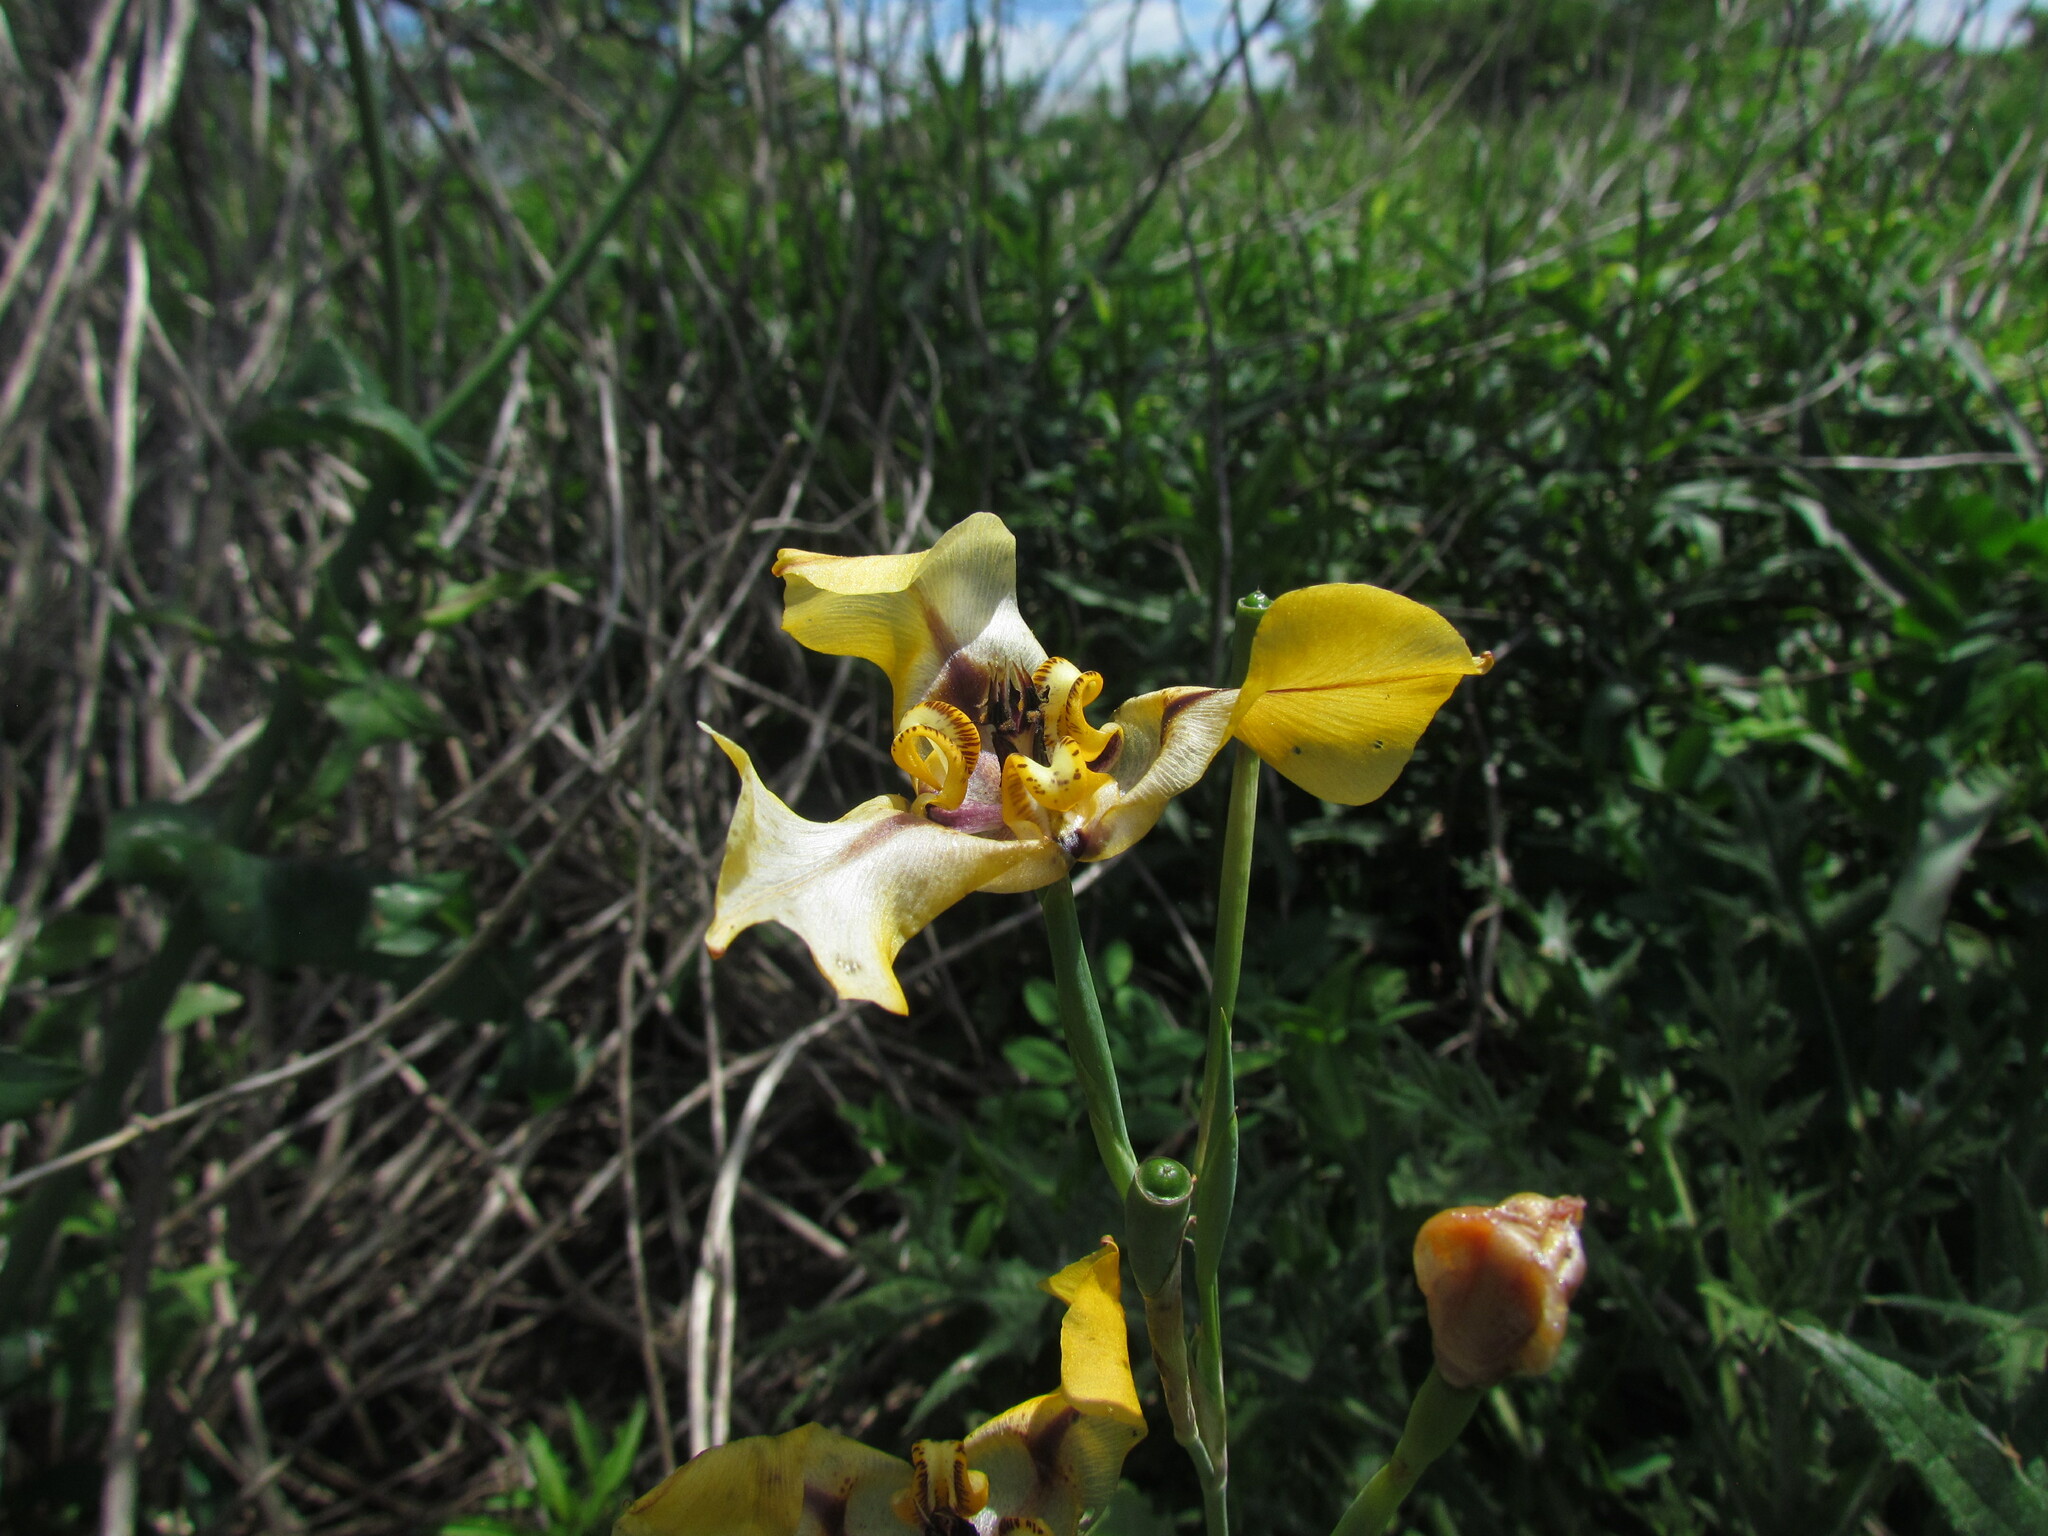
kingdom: Plantae
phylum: Tracheophyta
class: Liliopsida
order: Asparagales
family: Iridaceae
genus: Cypella
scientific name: Cypella herbertii
